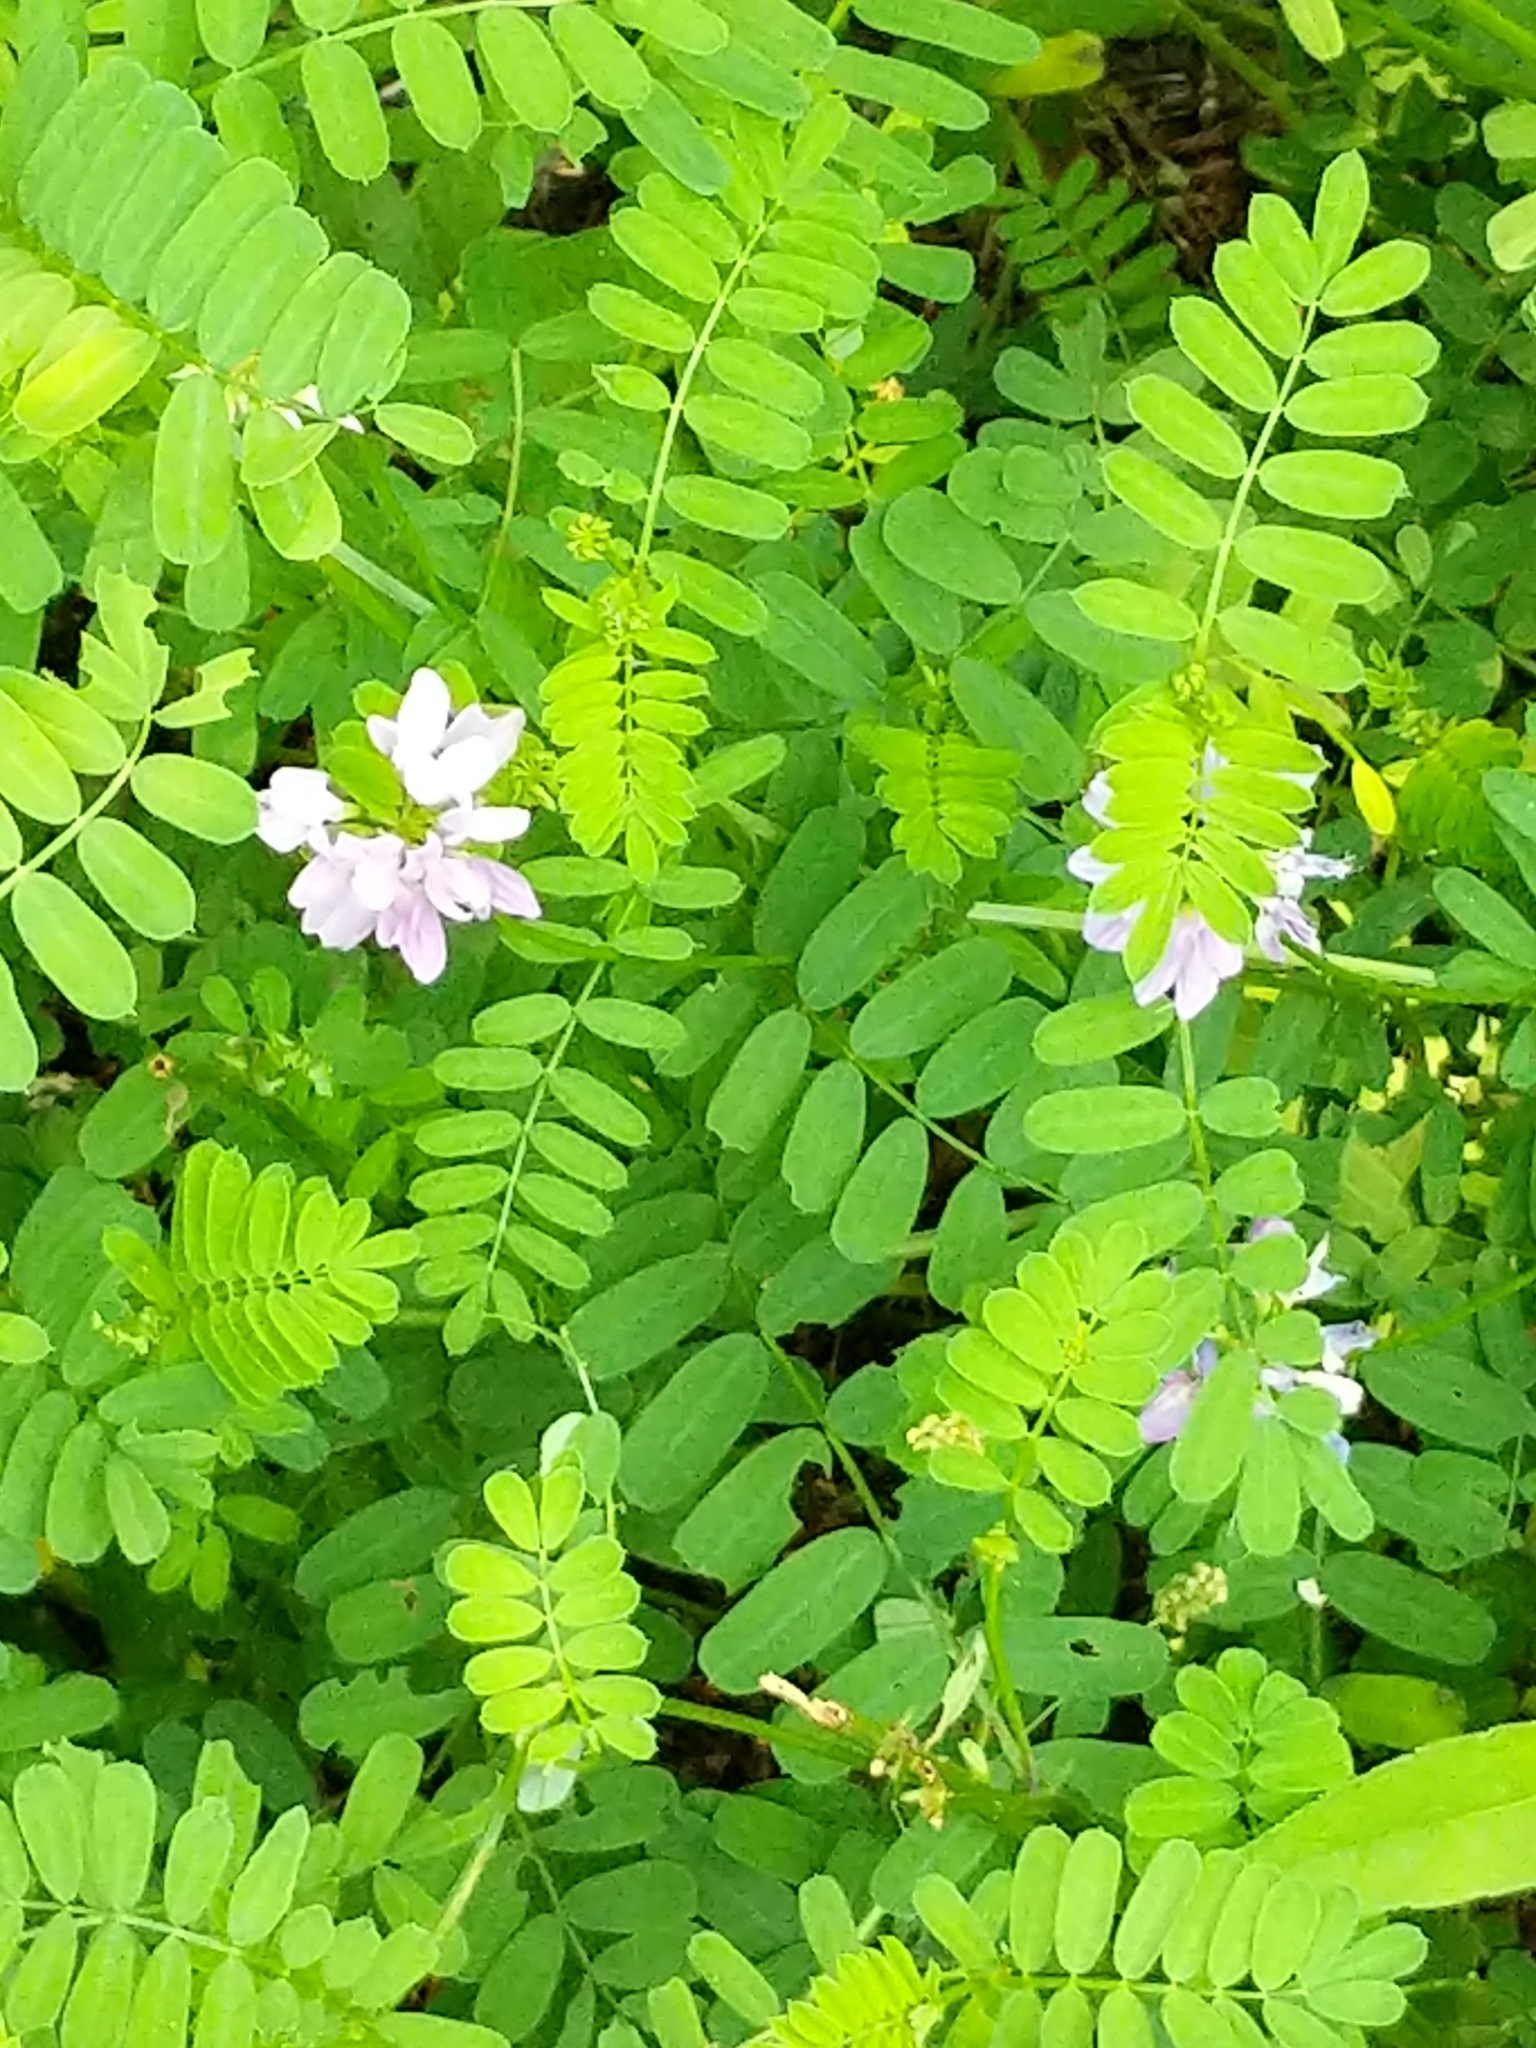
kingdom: Plantae
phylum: Tracheophyta
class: Magnoliopsida
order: Fabales
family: Fabaceae
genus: Coronilla
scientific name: Coronilla varia
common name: Crownvetch
